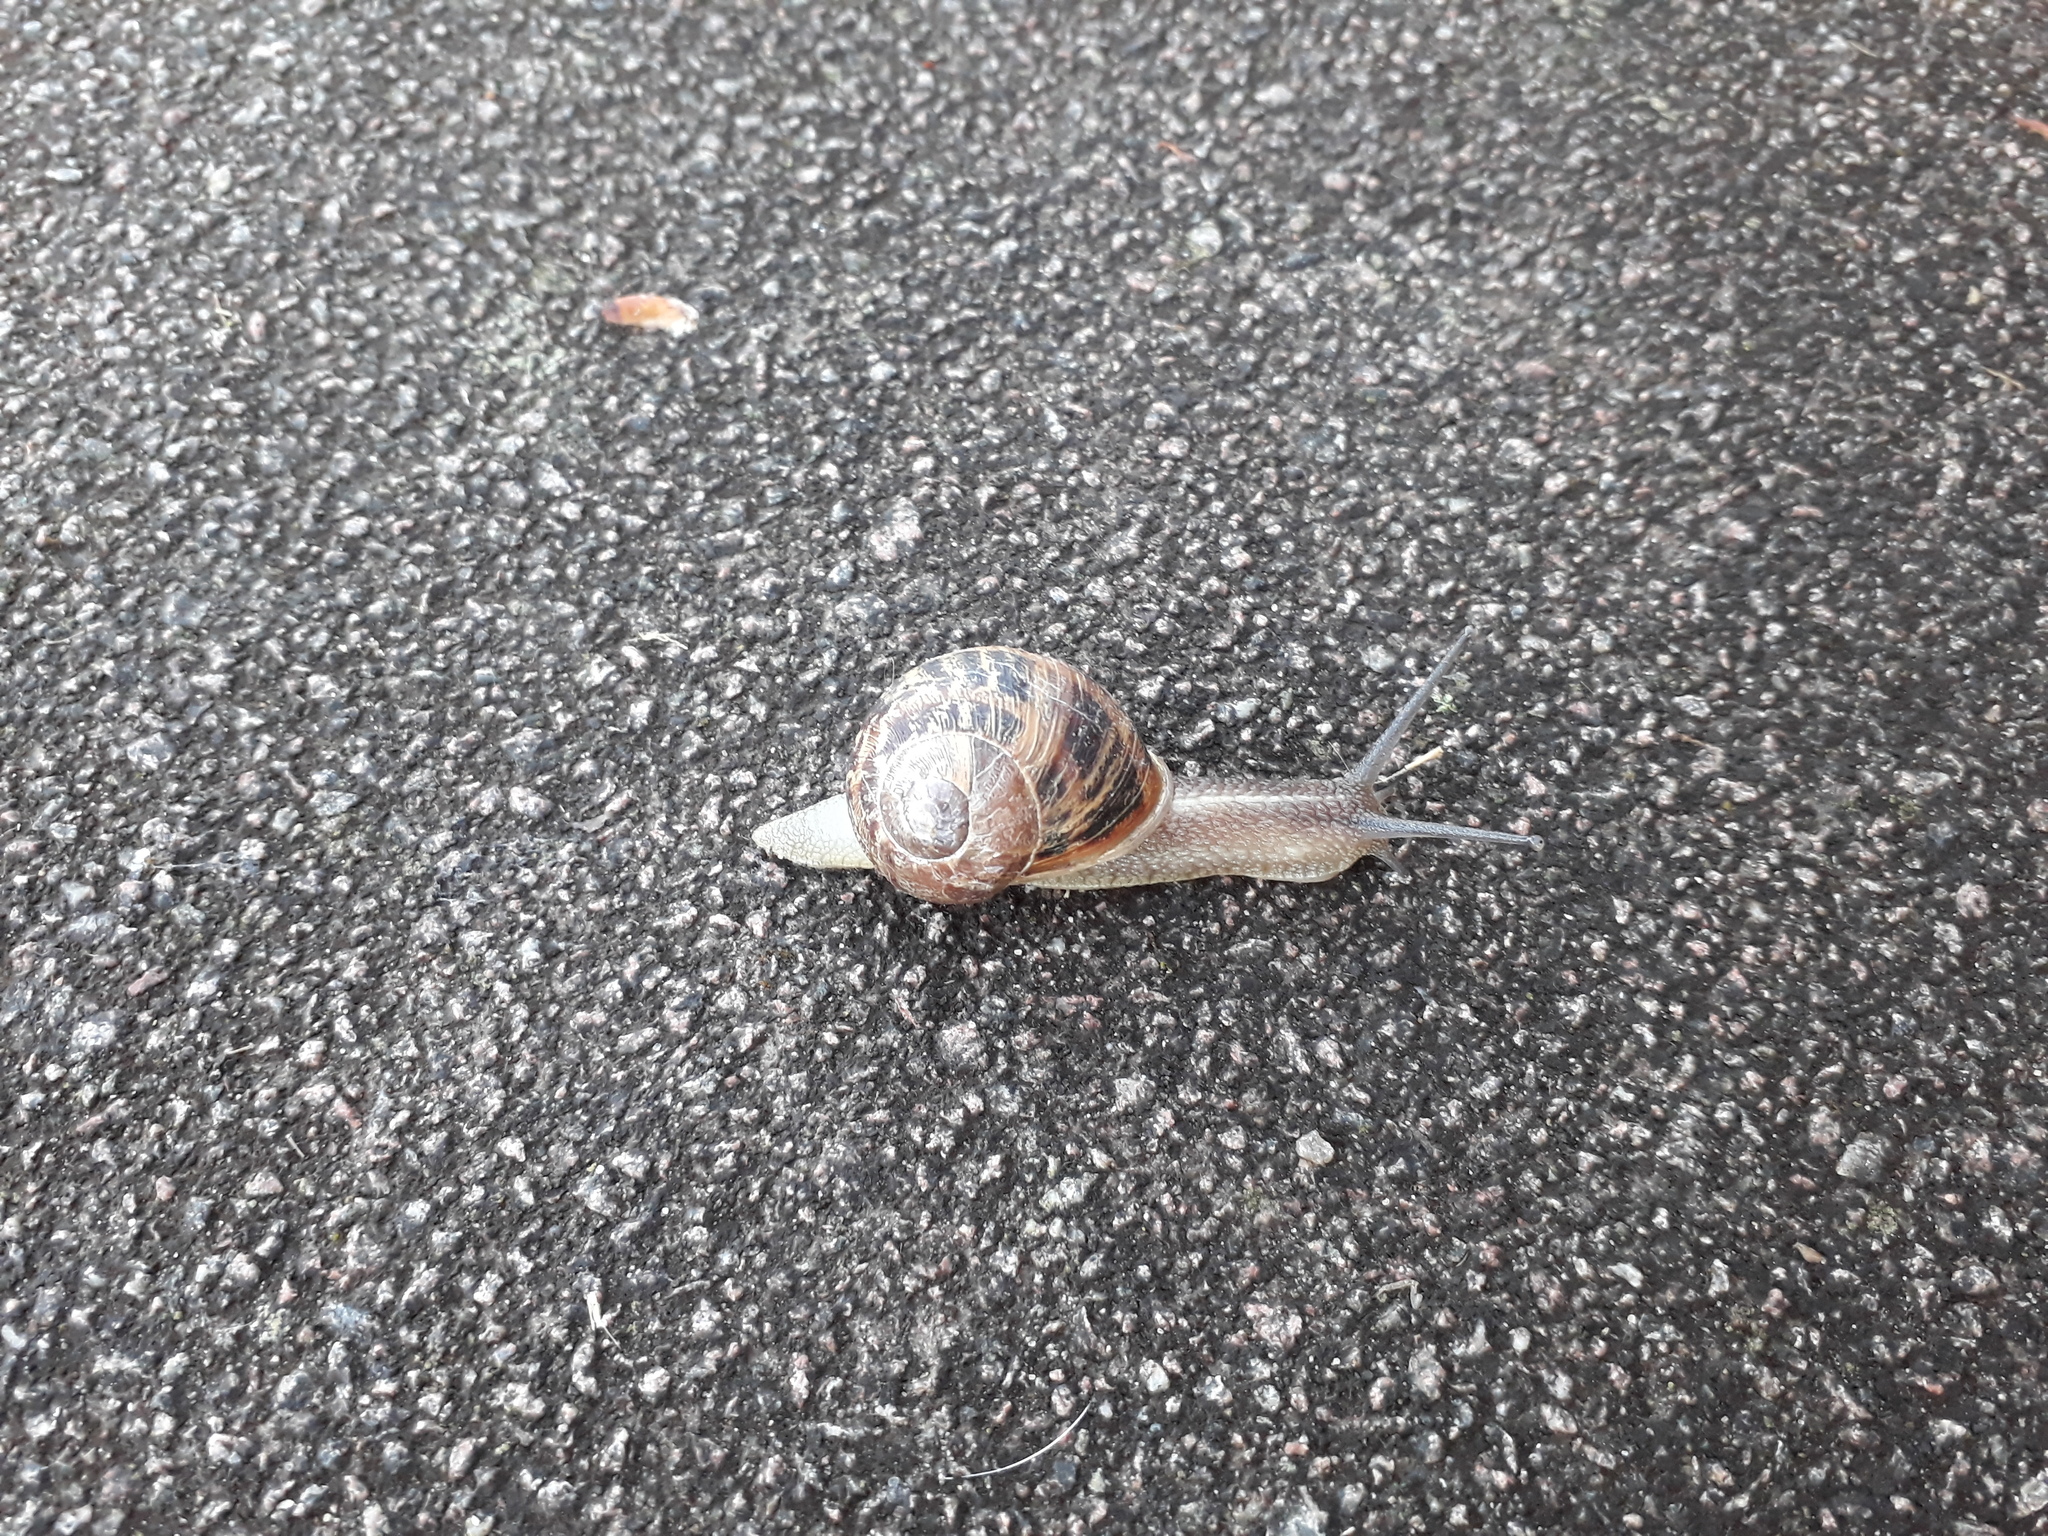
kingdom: Animalia
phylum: Mollusca
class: Gastropoda
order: Stylommatophora
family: Helicidae
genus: Cornu
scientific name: Cornu aspersum
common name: Brown garden snail
